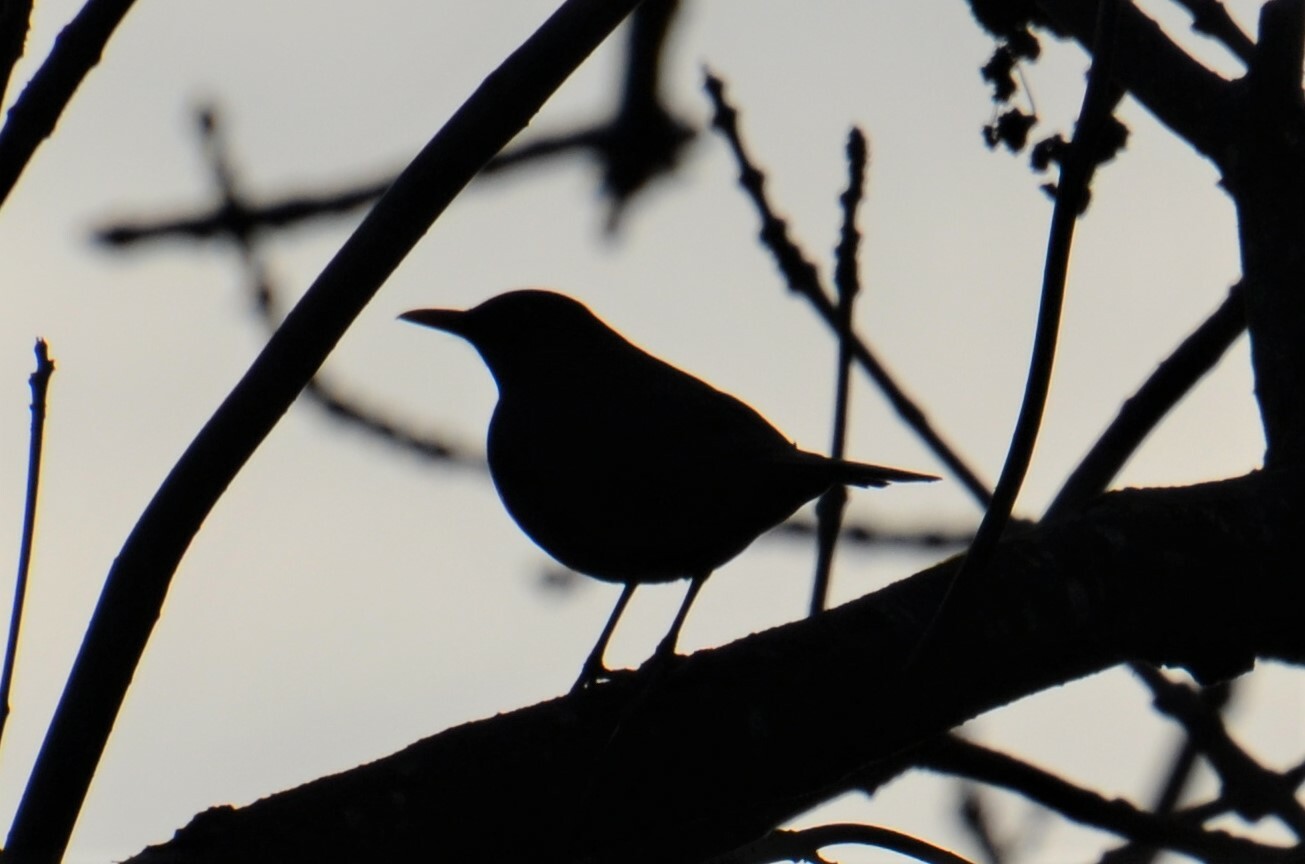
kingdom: Animalia
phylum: Chordata
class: Aves
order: Passeriformes
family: Turdidae
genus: Turdus
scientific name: Turdus merula
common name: Common blackbird
